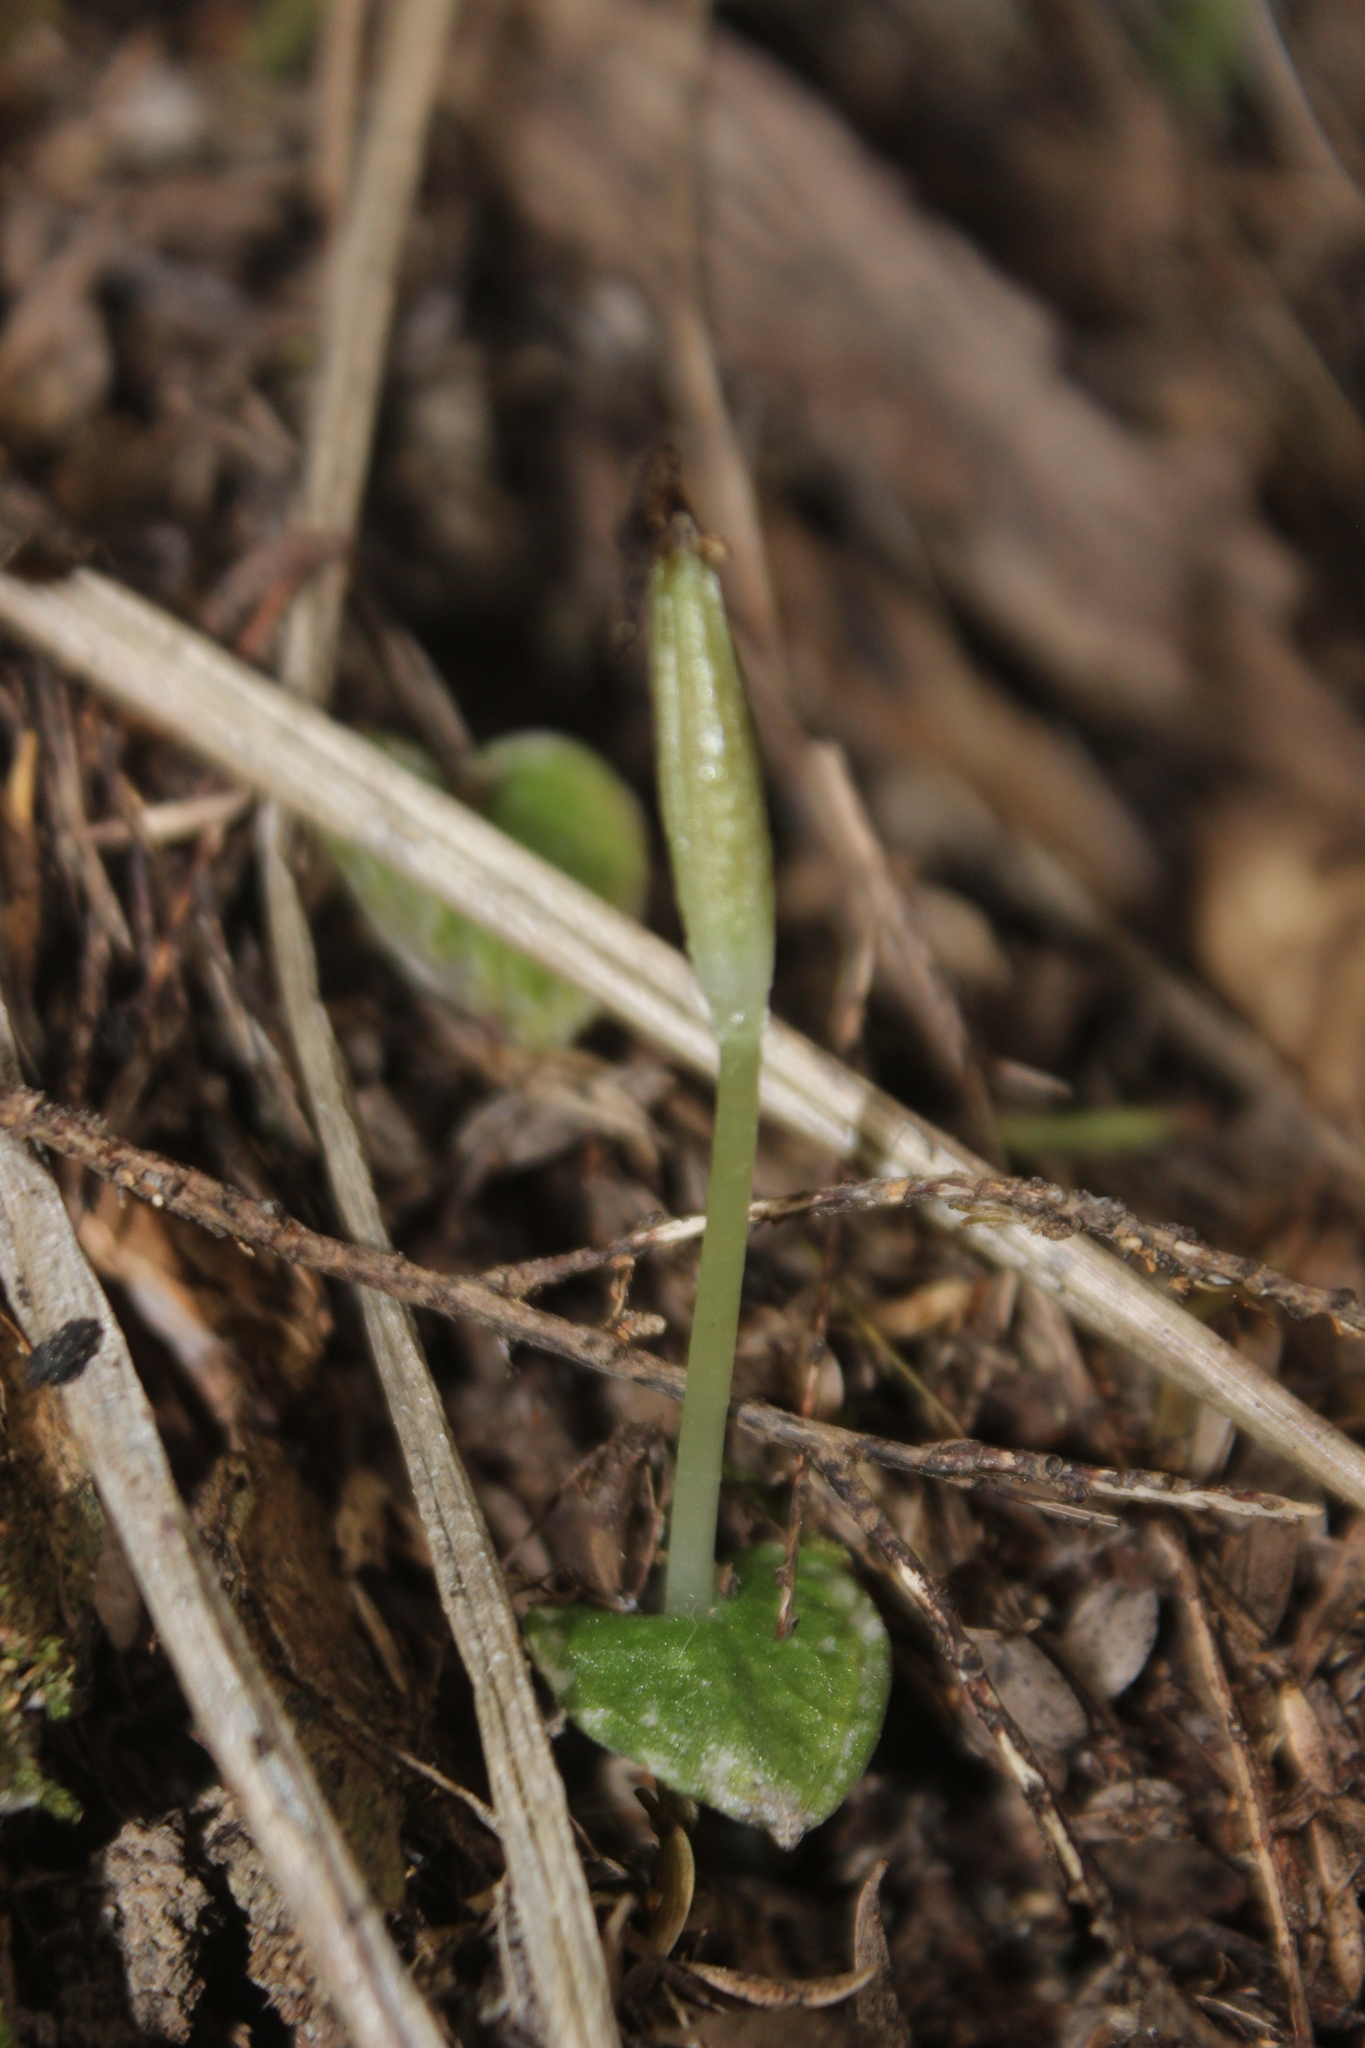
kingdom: Plantae
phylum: Tracheophyta
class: Liliopsida
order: Asparagales
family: Orchidaceae
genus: Corybas
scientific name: Corybas cheesemanii
